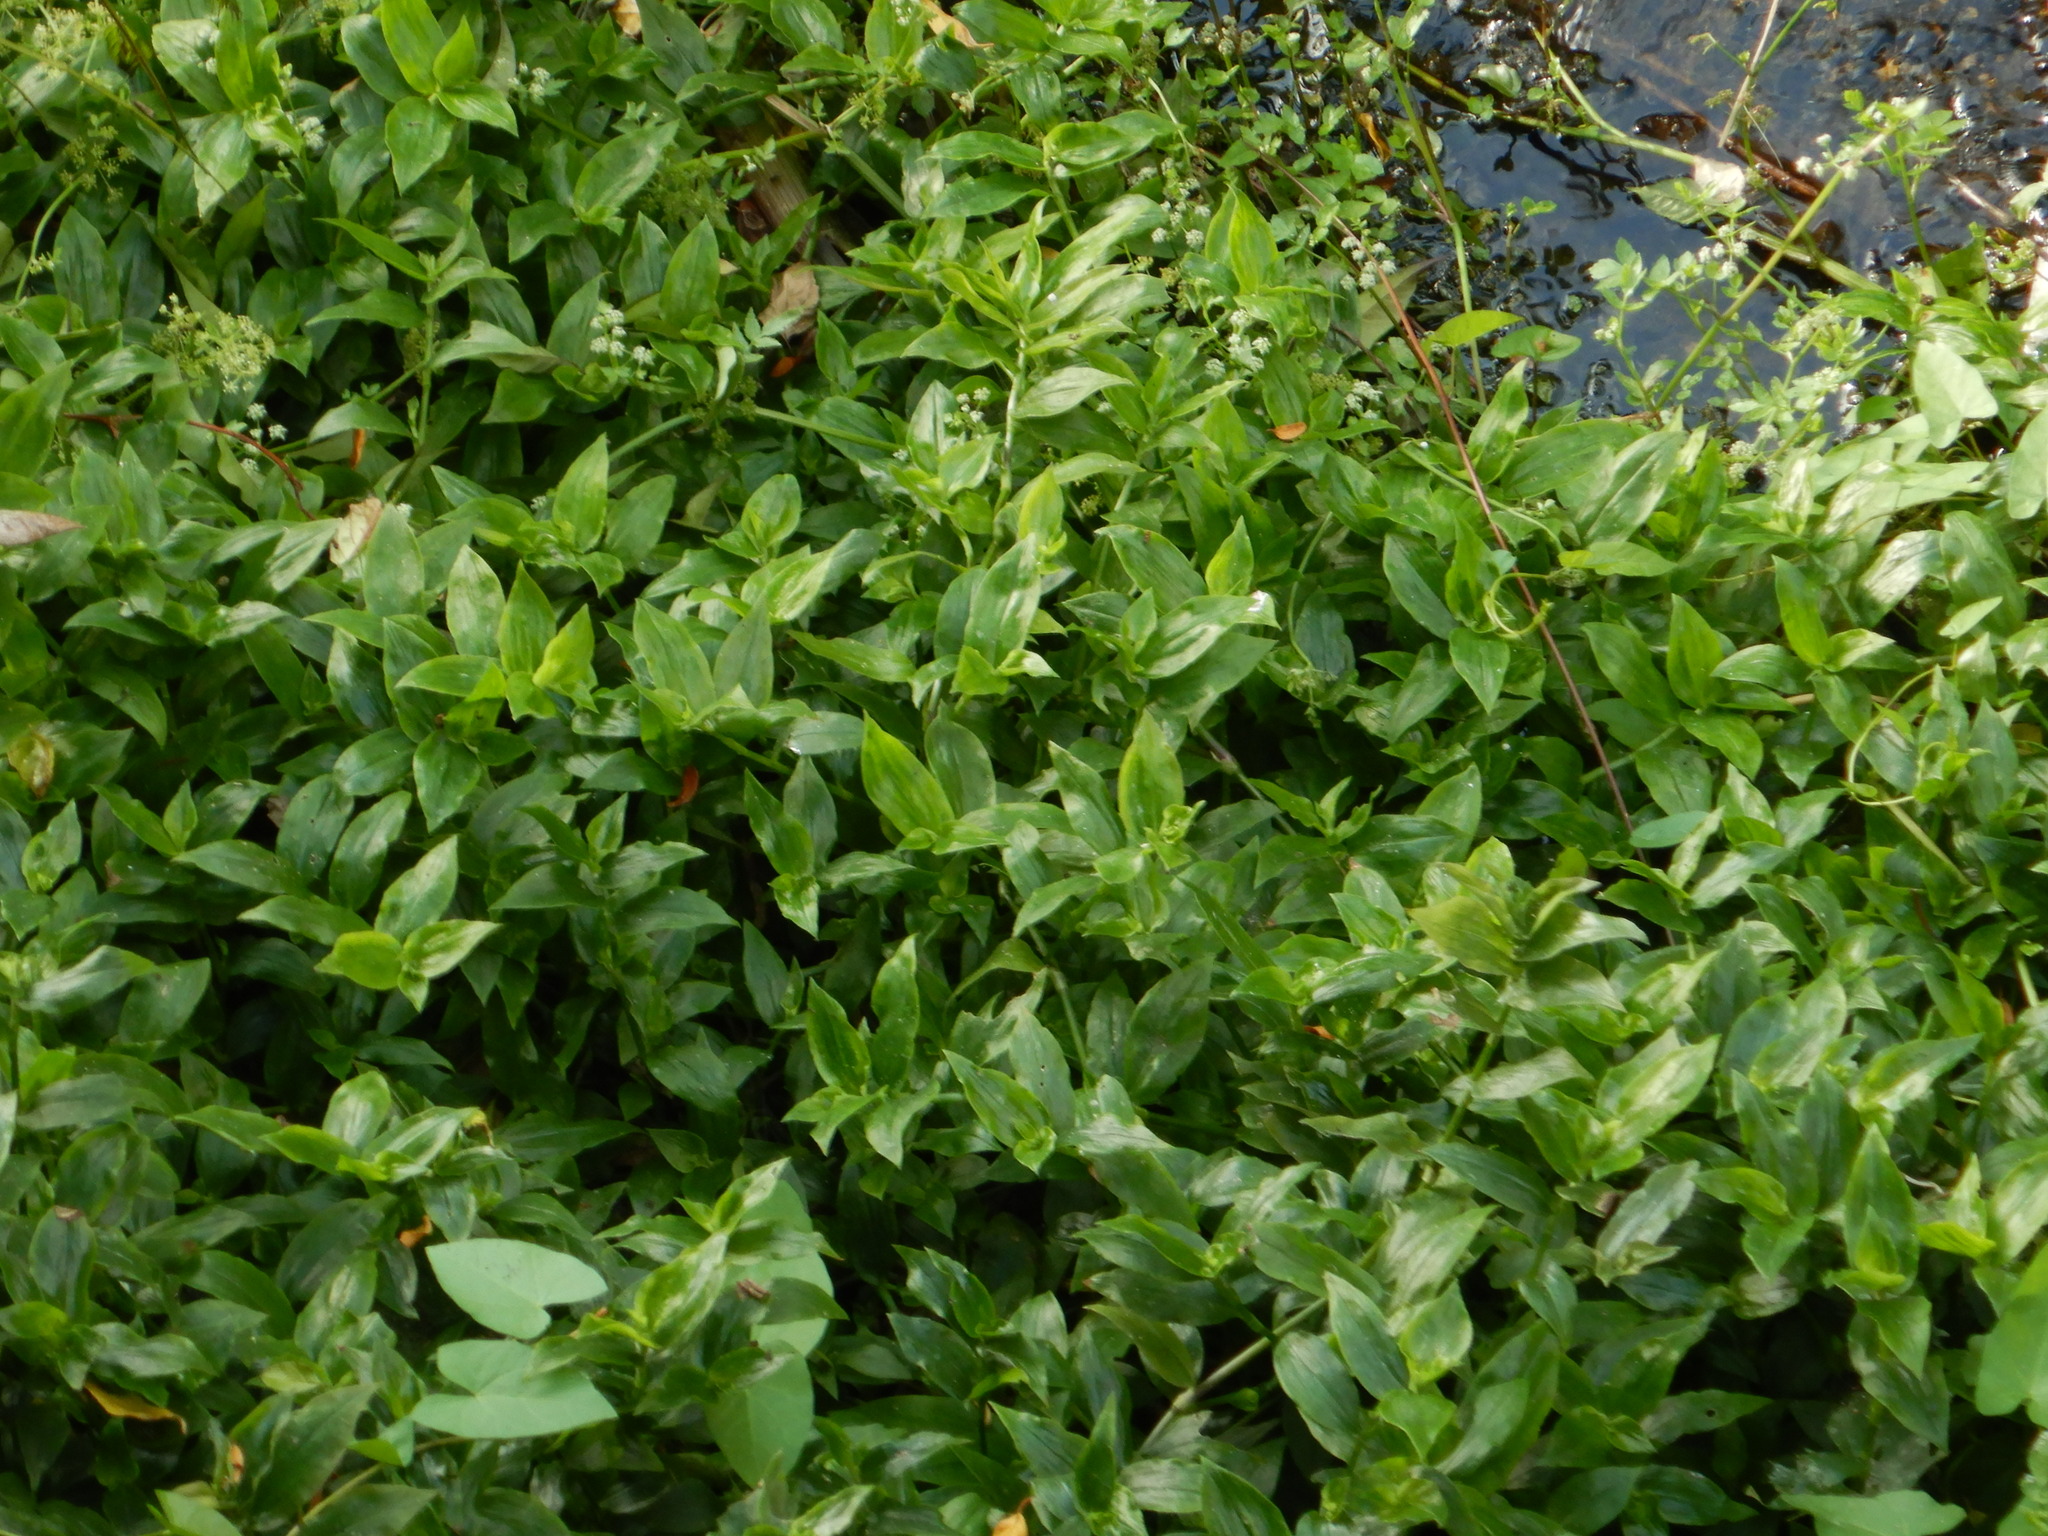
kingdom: Plantae
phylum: Tracheophyta
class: Liliopsida
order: Commelinales
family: Commelinaceae
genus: Tradescantia
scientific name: Tradescantia fluminensis
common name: Wandering-jew
